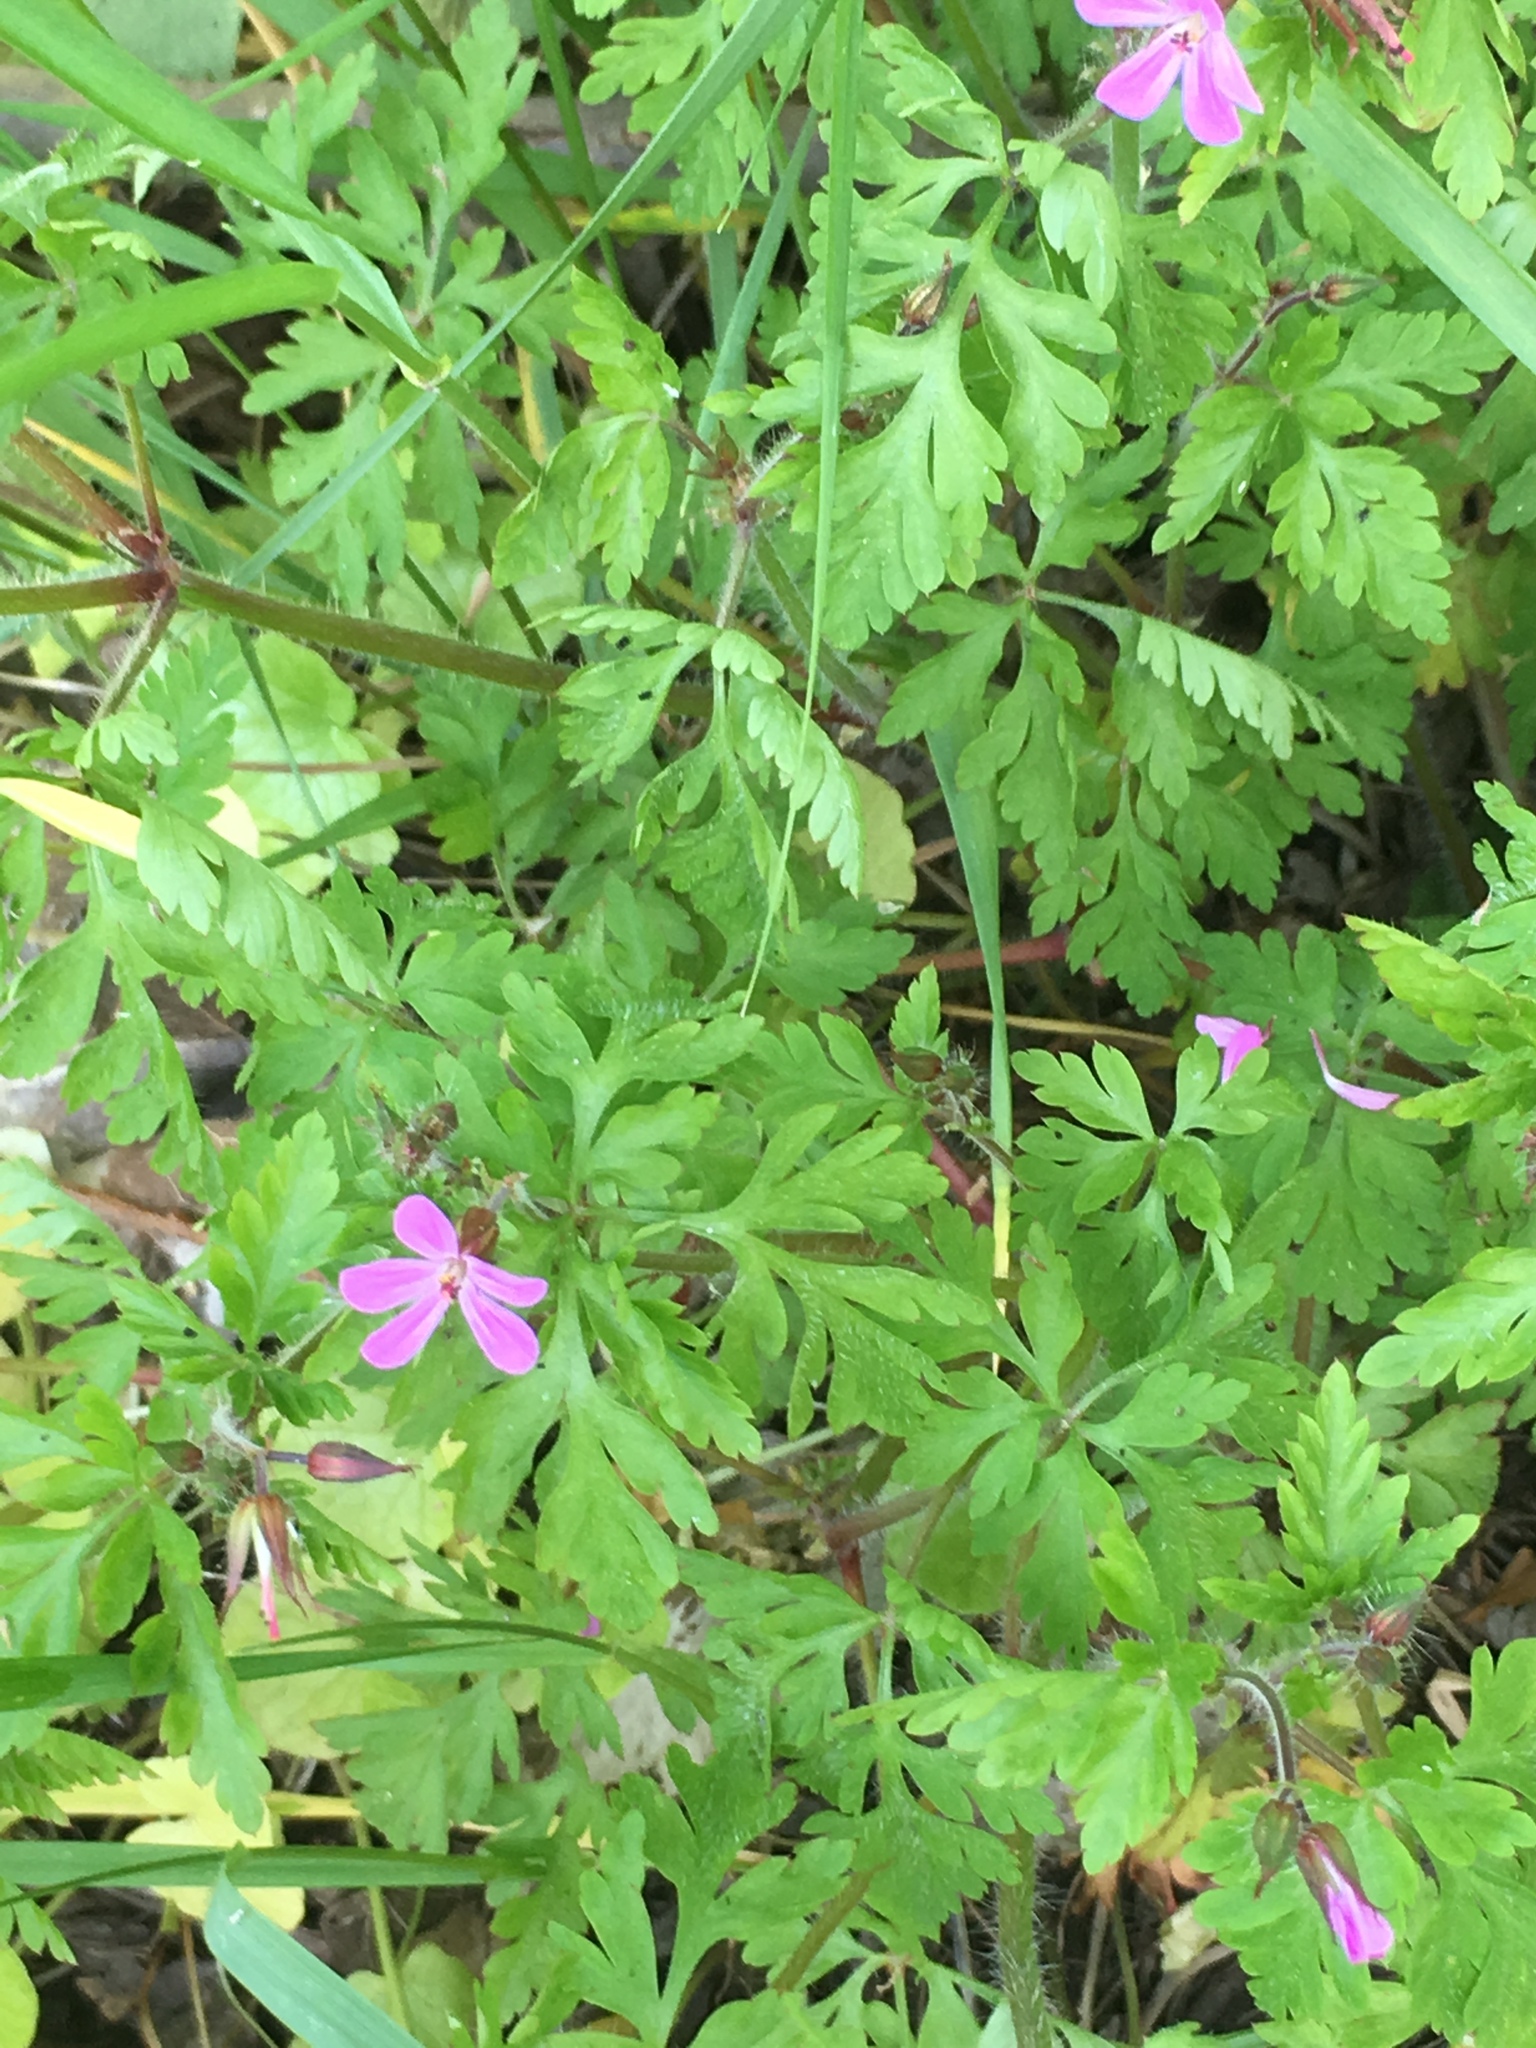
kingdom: Plantae
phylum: Tracheophyta
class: Magnoliopsida
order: Geraniales
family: Geraniaceae
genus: Geranium
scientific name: Geranium robertianum
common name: Herb-robert
